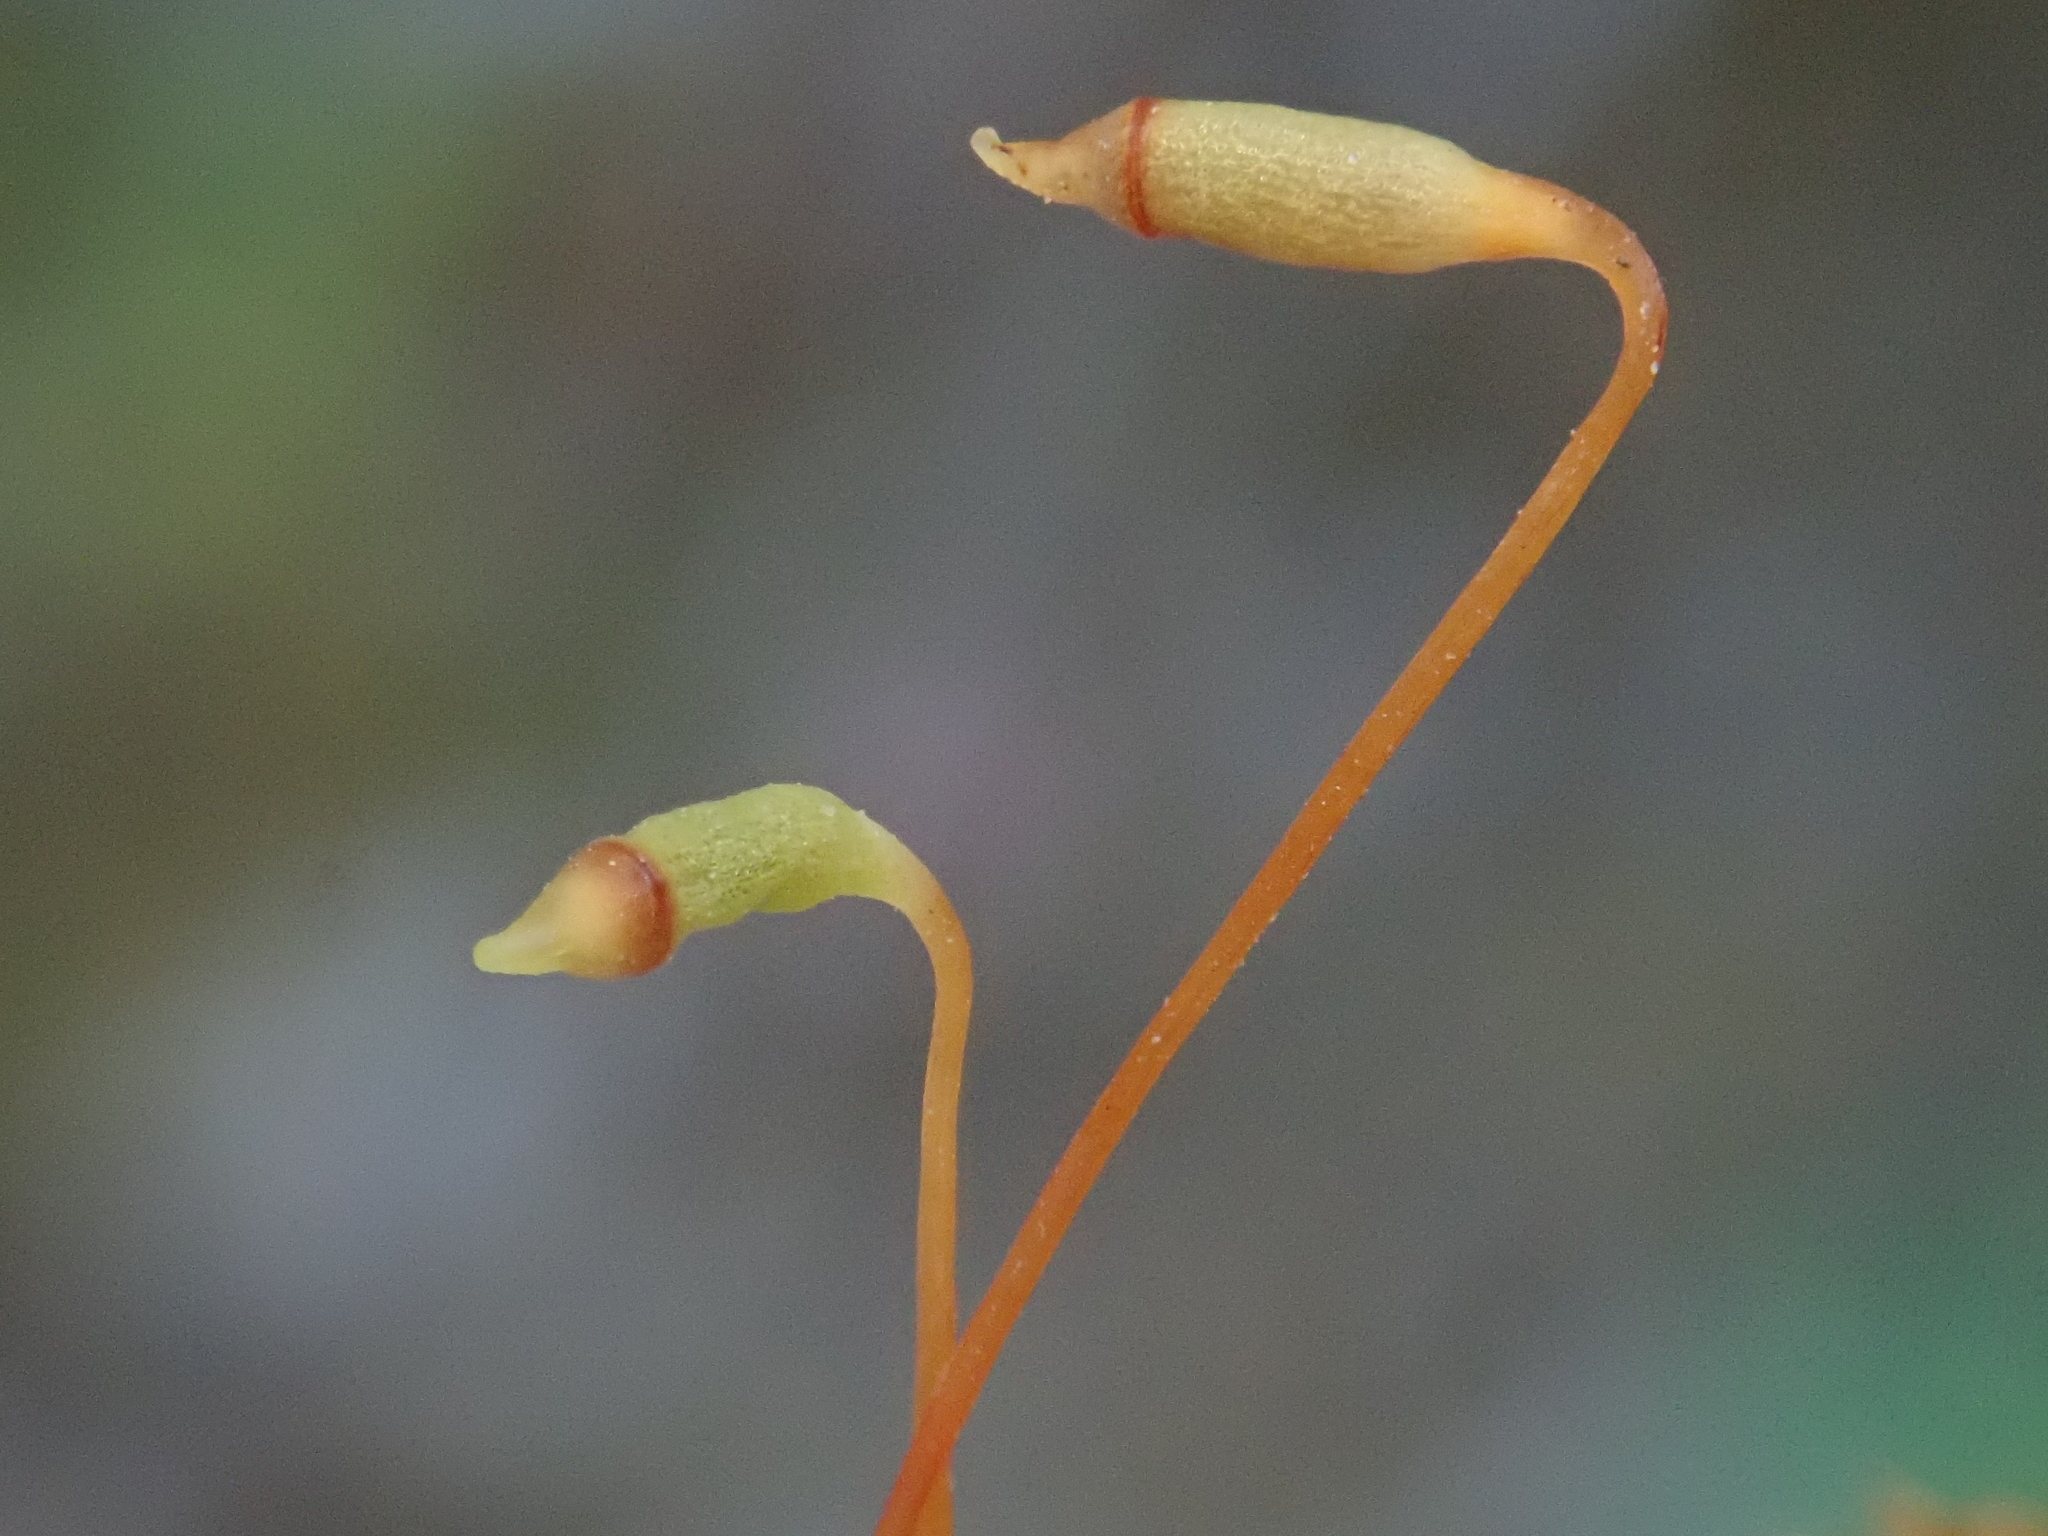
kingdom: Plantae
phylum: Bryophyta
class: Bryopsida
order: Bryales
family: Mniaceae
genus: Mnium
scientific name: Mnium marginatum
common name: Bordered leafy moss
